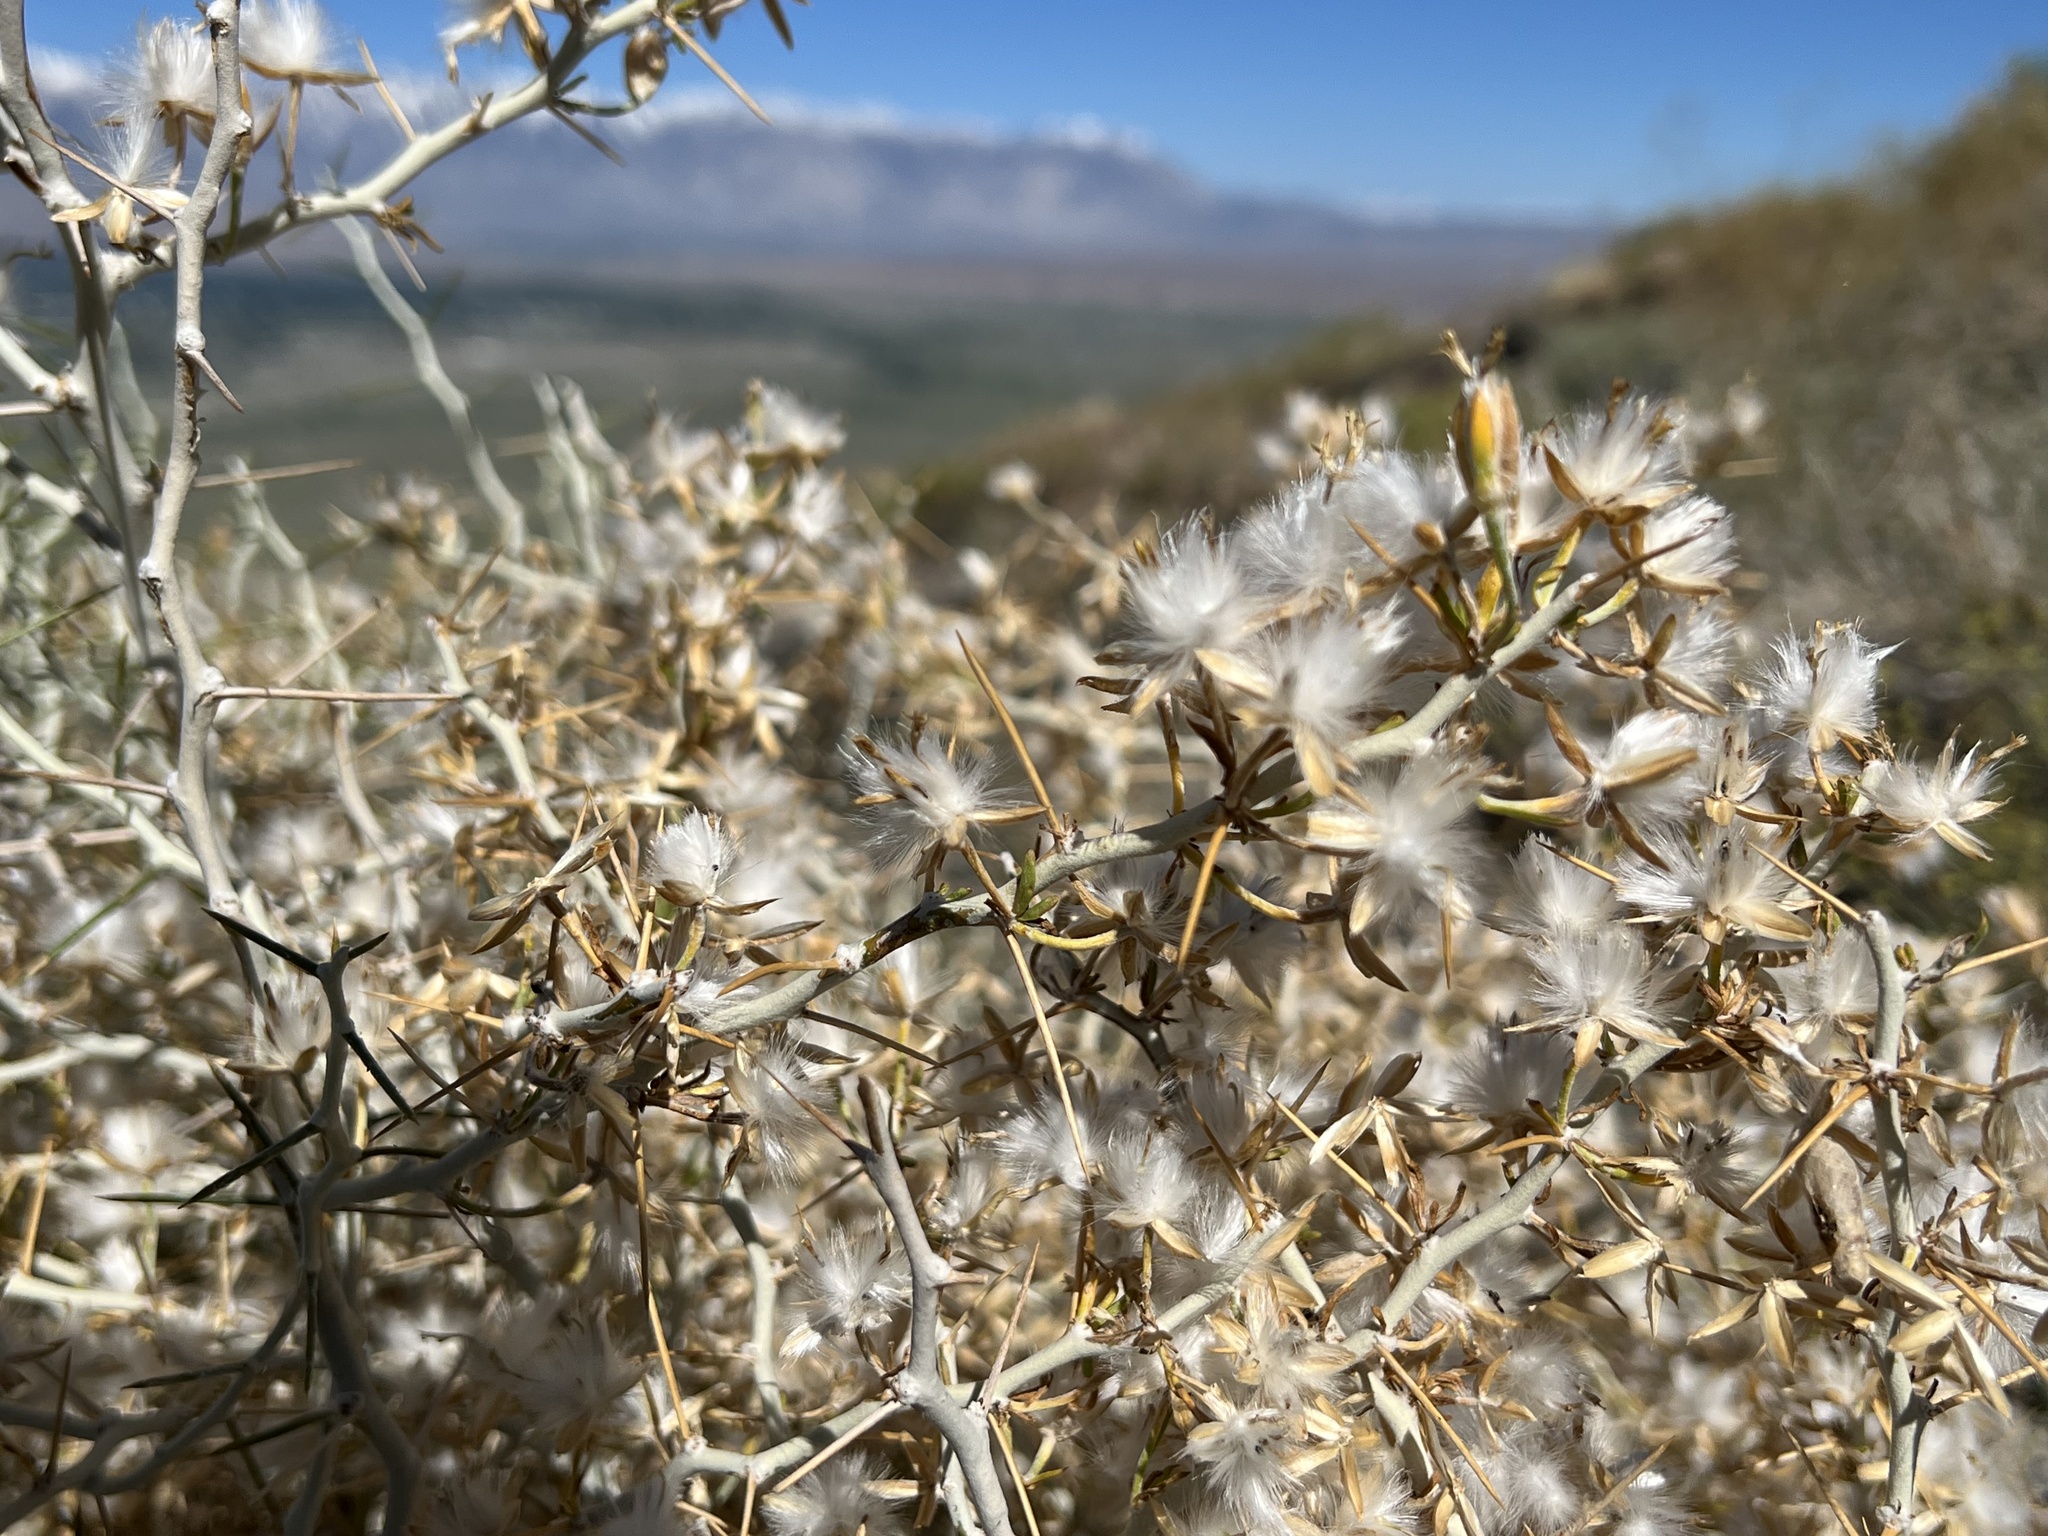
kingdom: Plantae
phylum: Tracheophyta
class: Magnoliopsida
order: Asterales
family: Asteraceae
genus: Tetradymia
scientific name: Tetradymia axillaris
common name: Long-spine horsebrush
